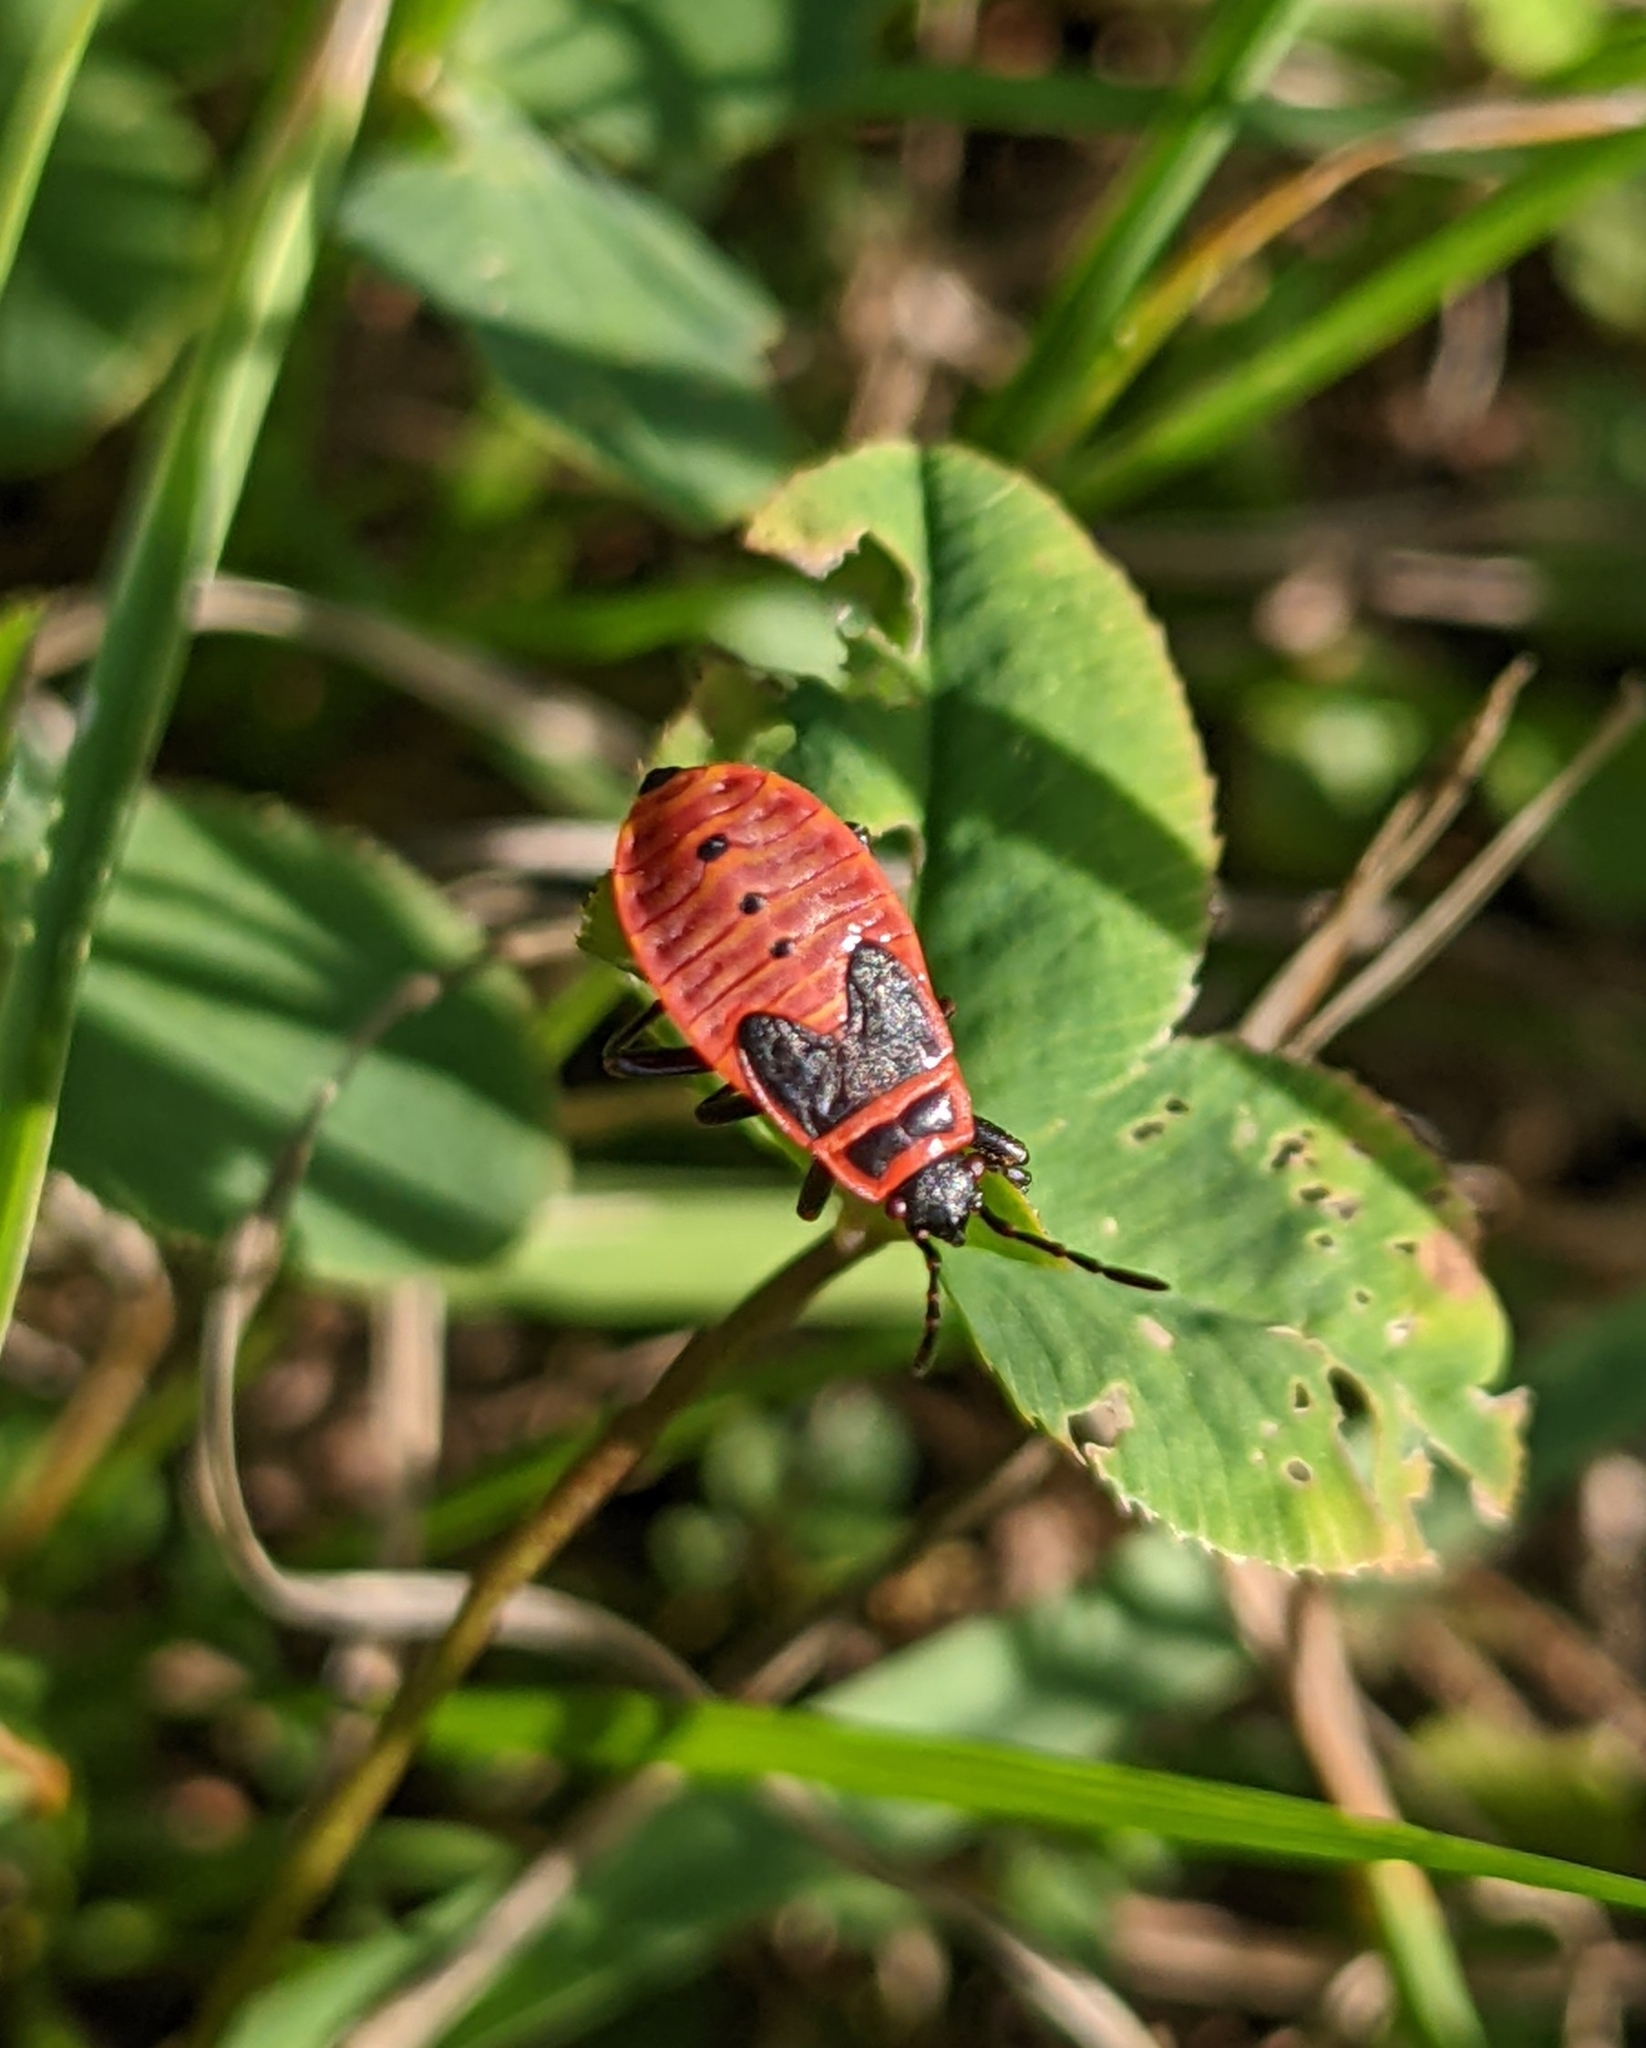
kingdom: Animalia
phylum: Arthropoda
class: Insecta
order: Hemiptera
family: Pyrrhocoridae
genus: Pyrrhocoris
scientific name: Pyrrhocoris apterus
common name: Firebug
